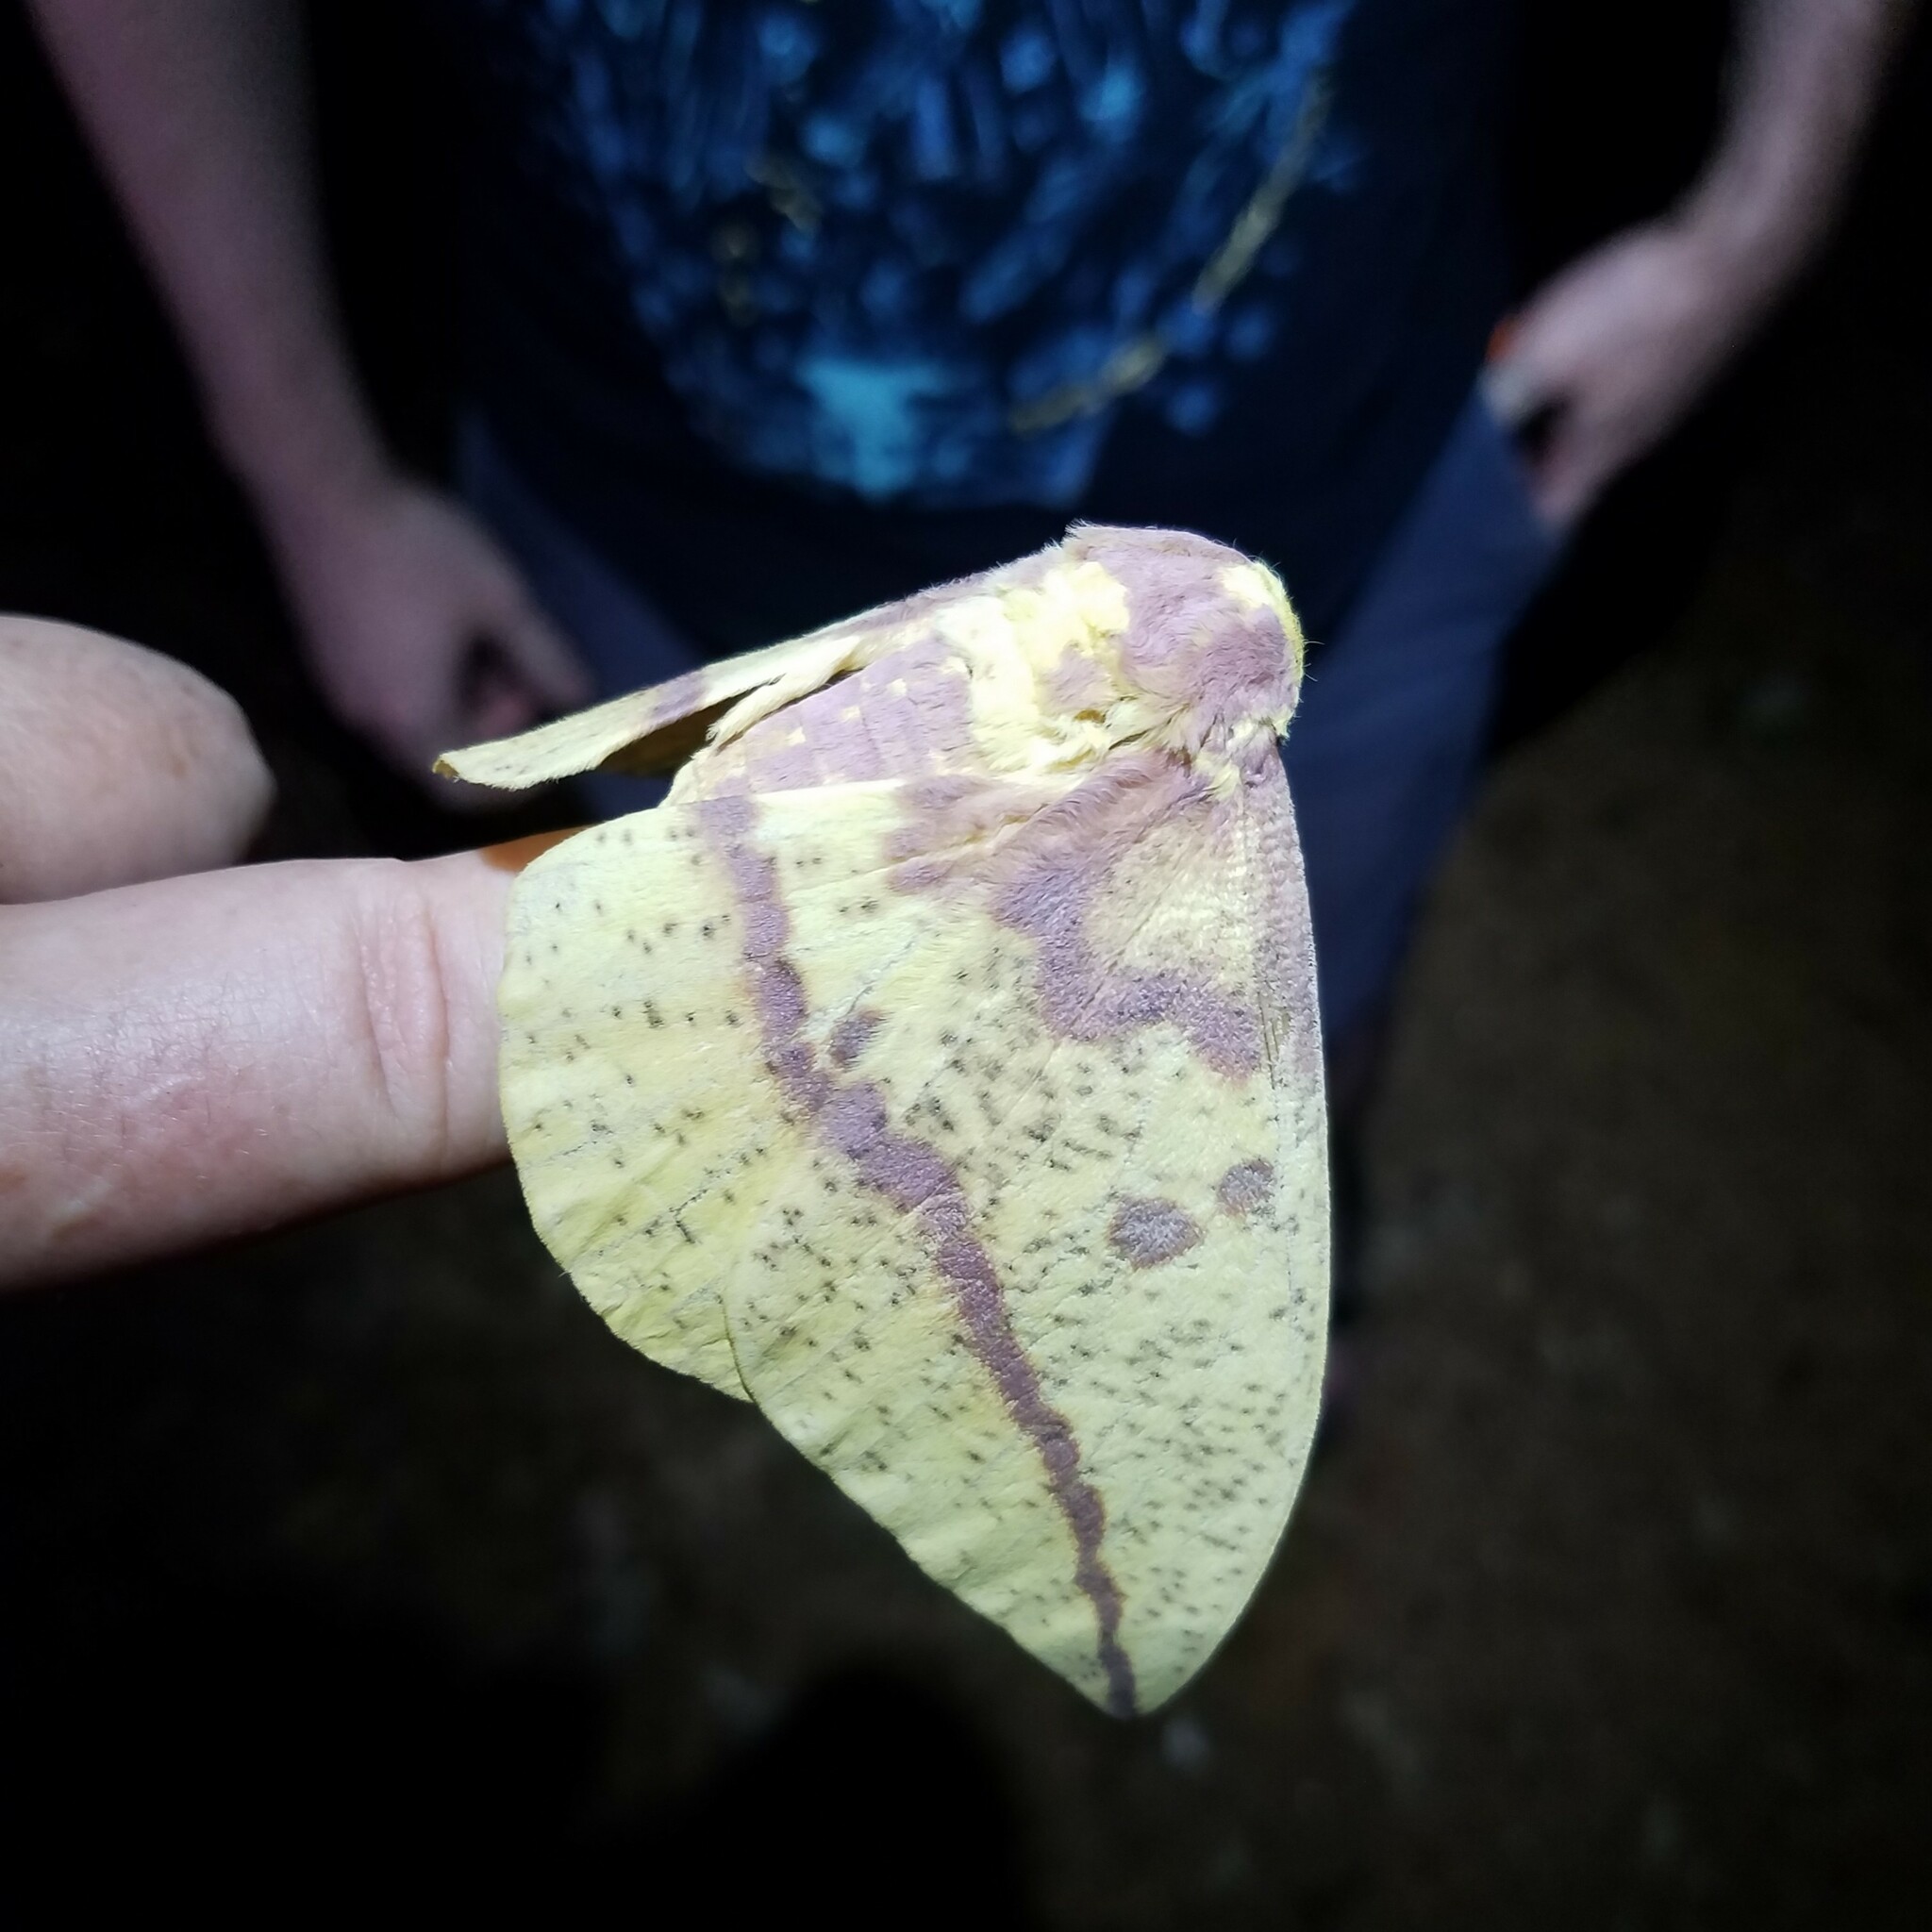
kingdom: Animalia
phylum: Arthropoda
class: Insecta
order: Lepidoptera
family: Saturniidae
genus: Eacles
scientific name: Eacles imperialis
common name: Imperial moth
